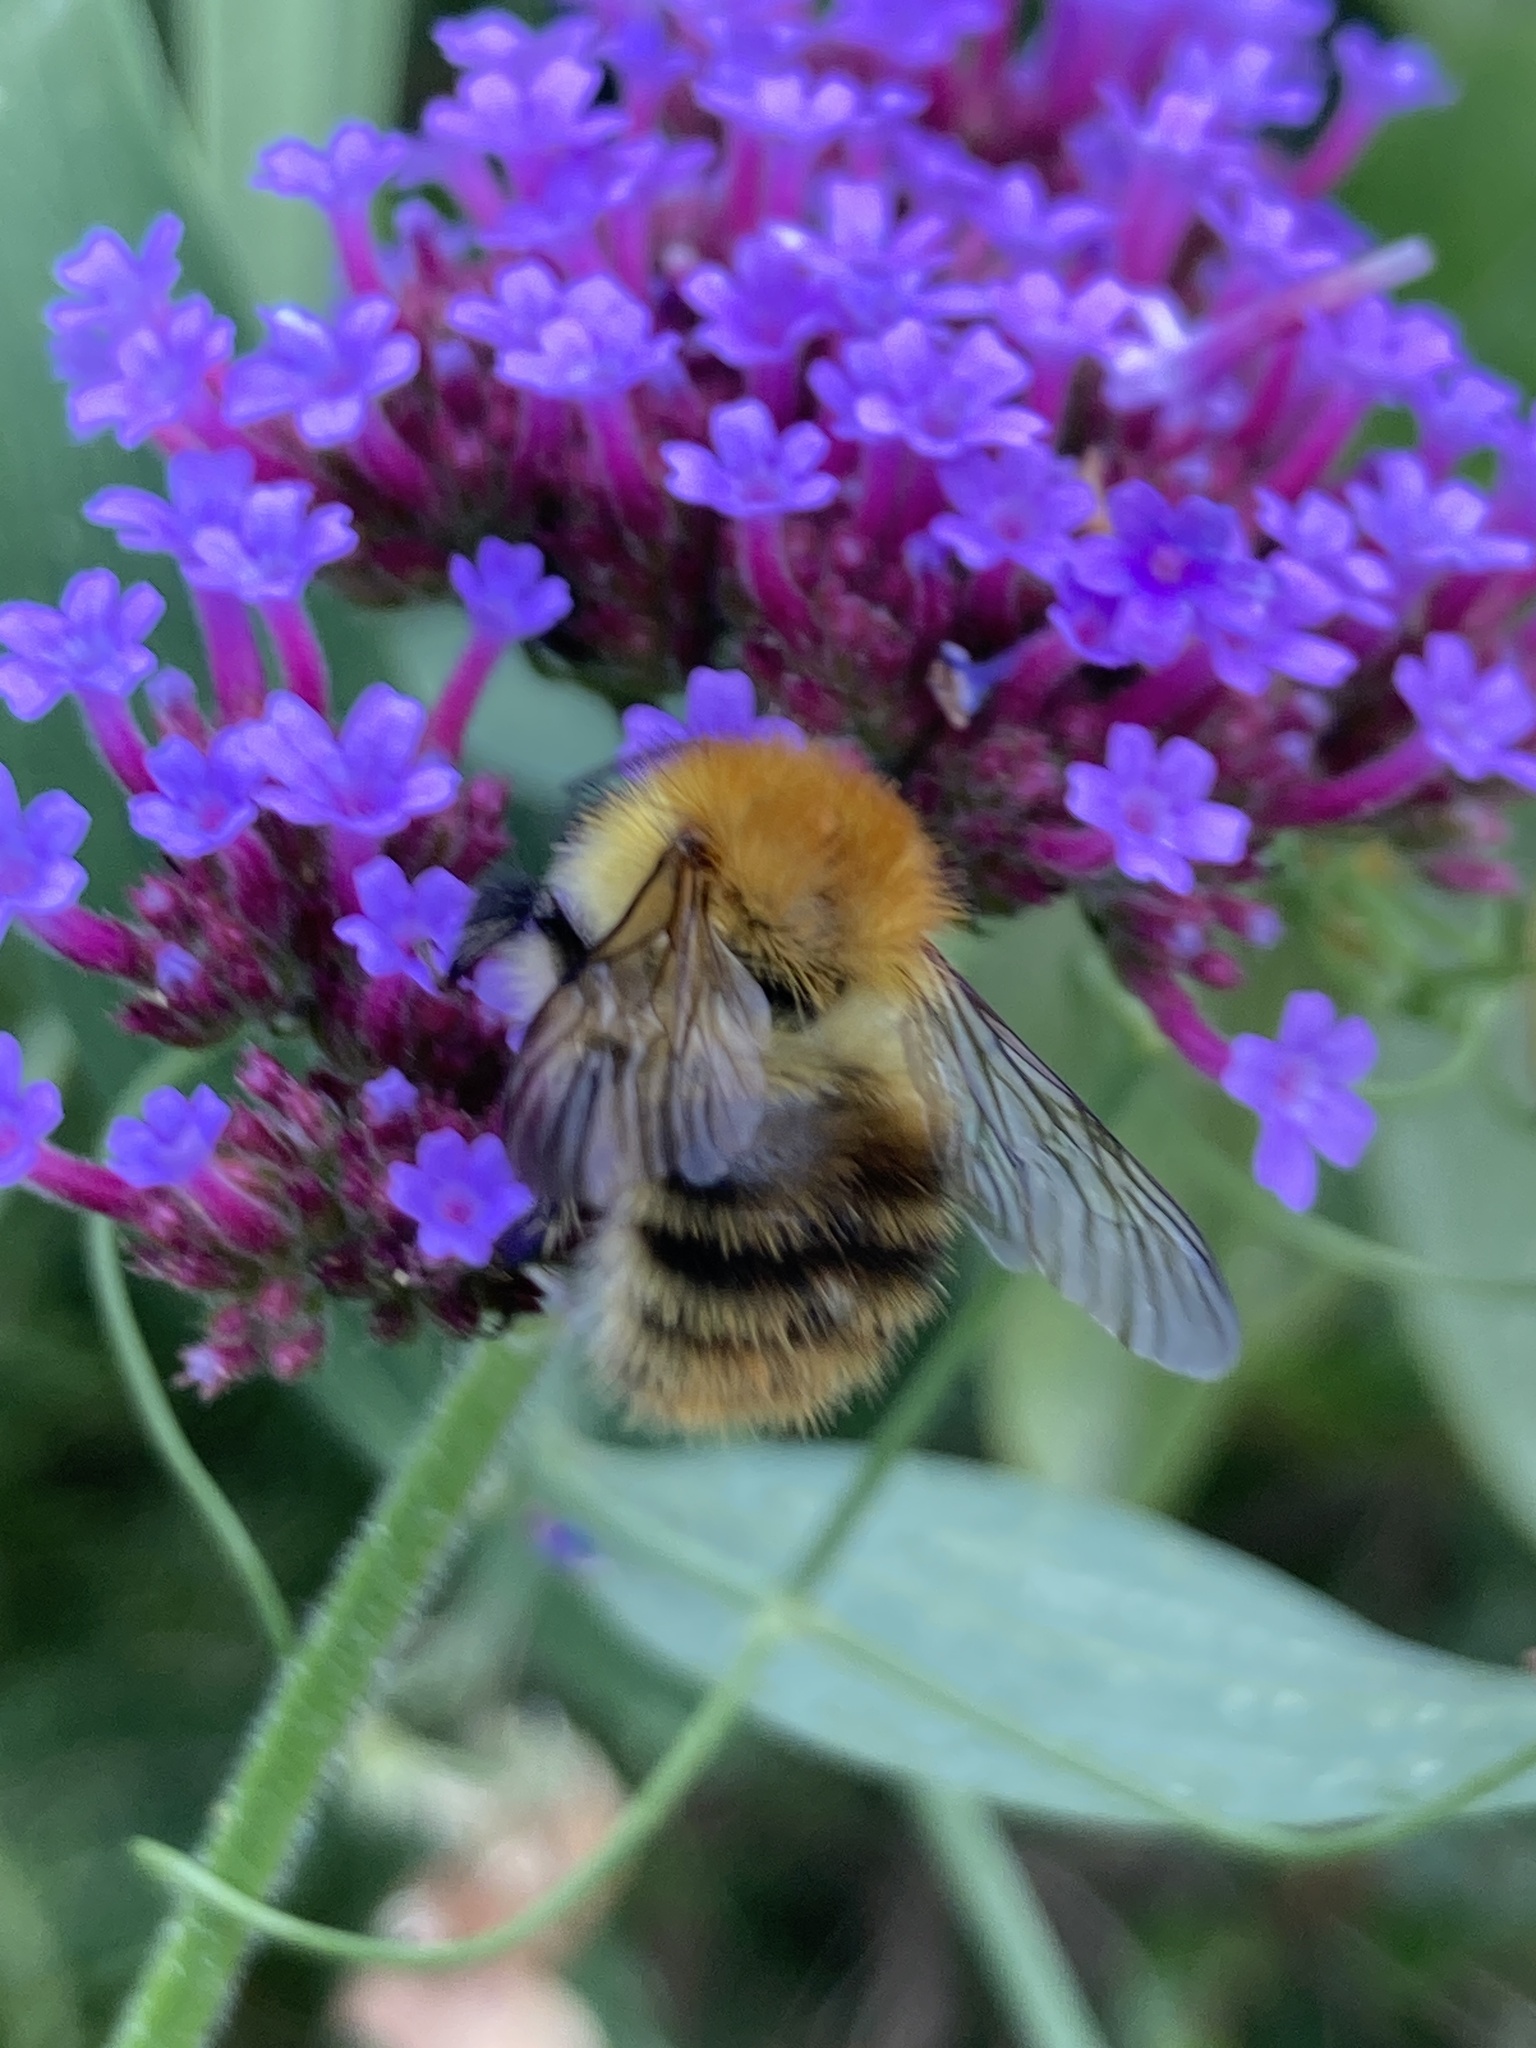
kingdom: Animalia
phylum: Arthropoda
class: Insecta
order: Hymenoptera
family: Apidae
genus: Bombus
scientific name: Bombus pascuorum
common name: Common carder bee
